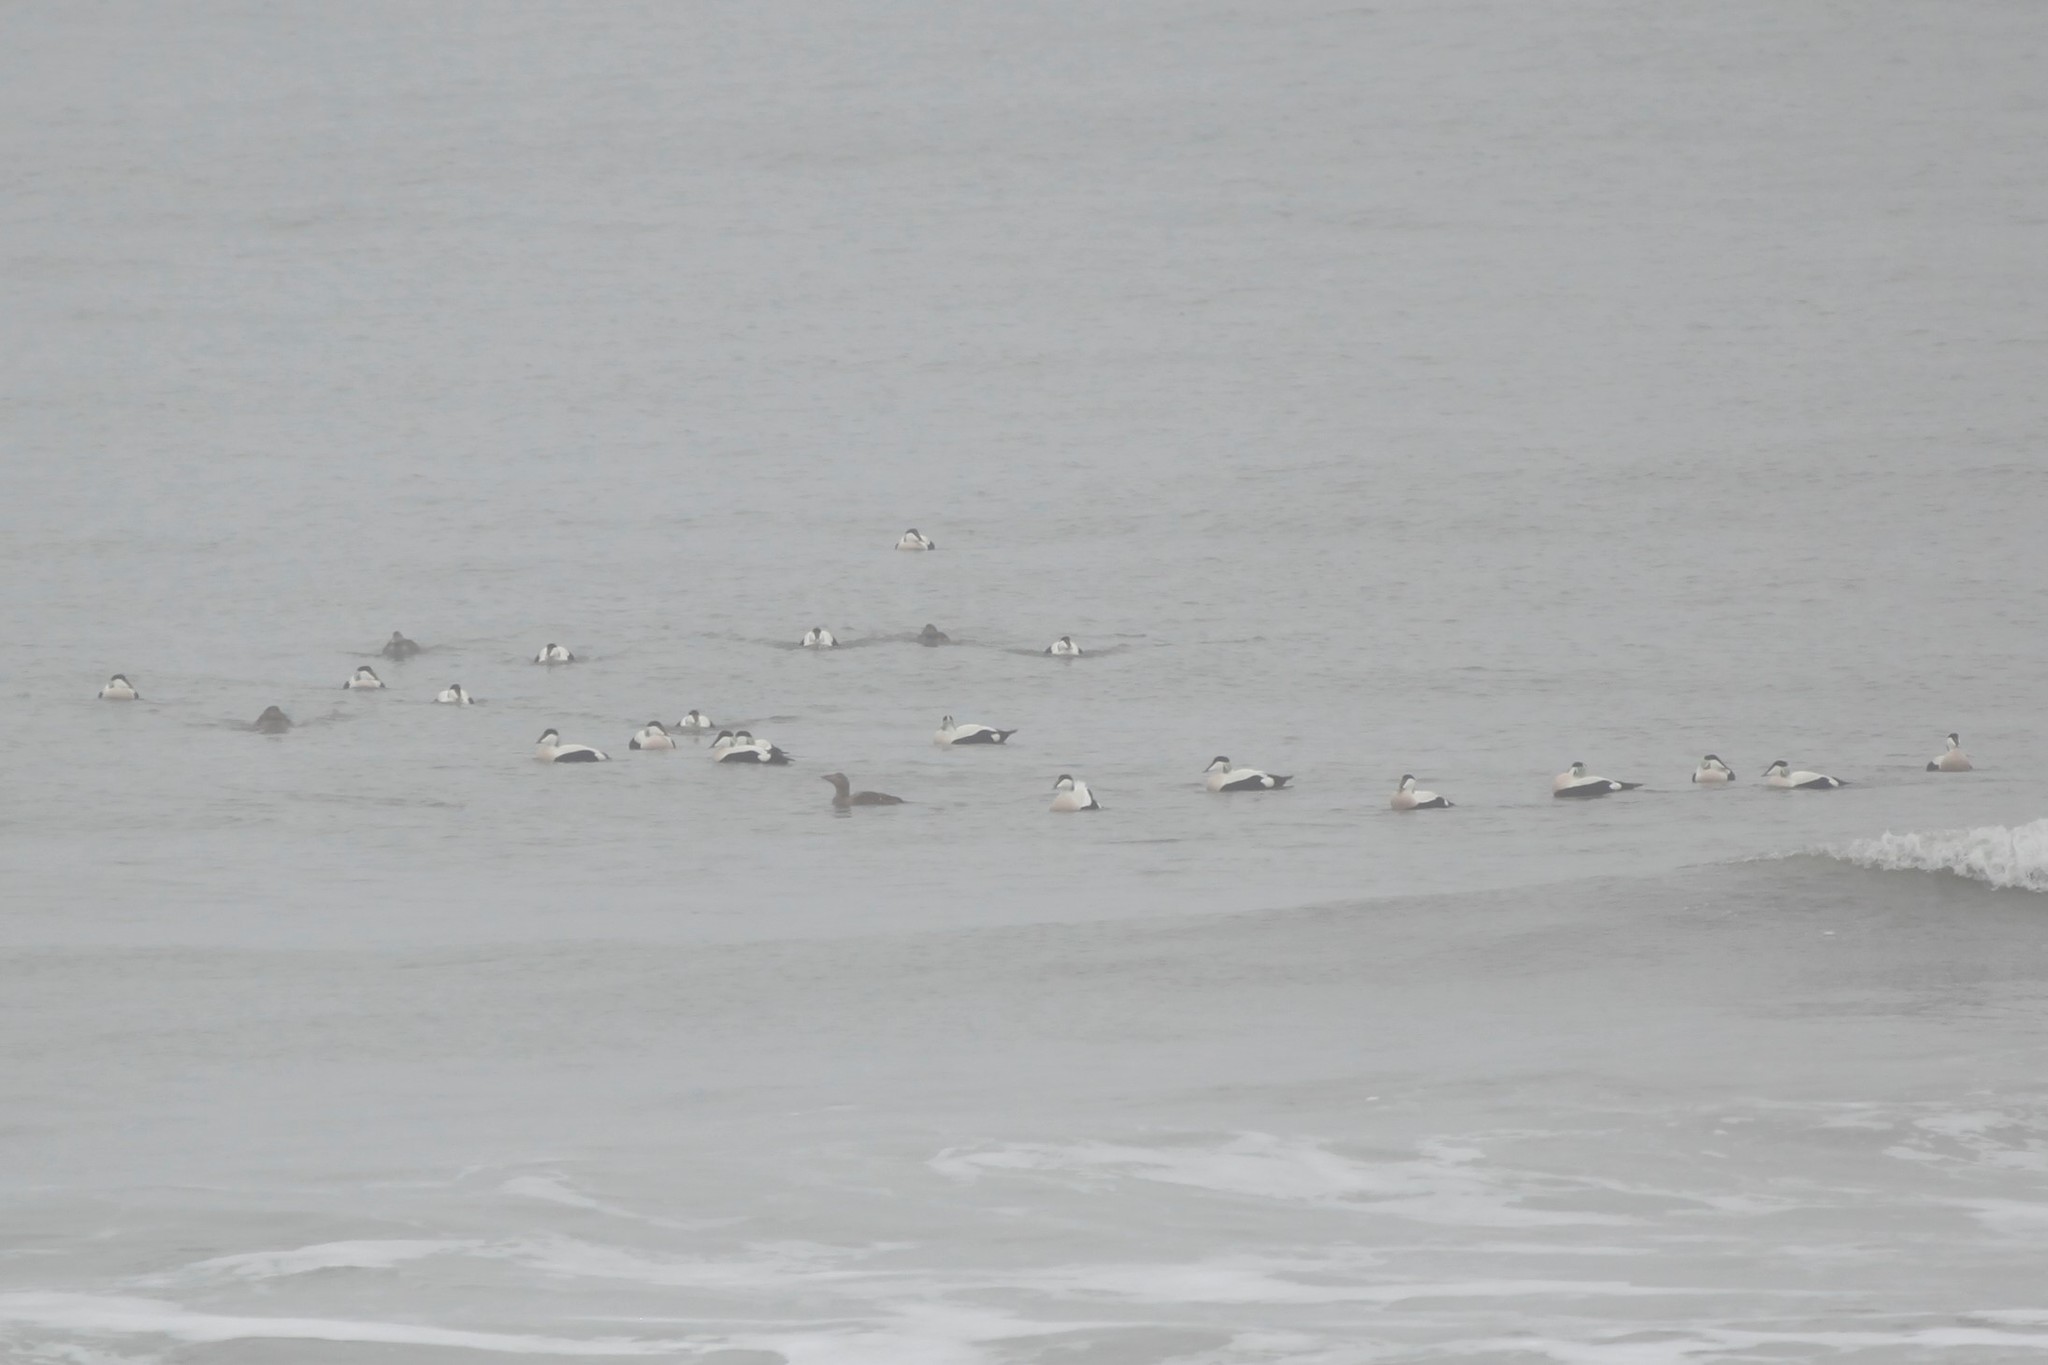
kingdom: Animalia
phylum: Chordata
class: Aves
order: Anseriformes
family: Anatidae
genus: Somateria
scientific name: Somateria mollissima
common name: Common eider
